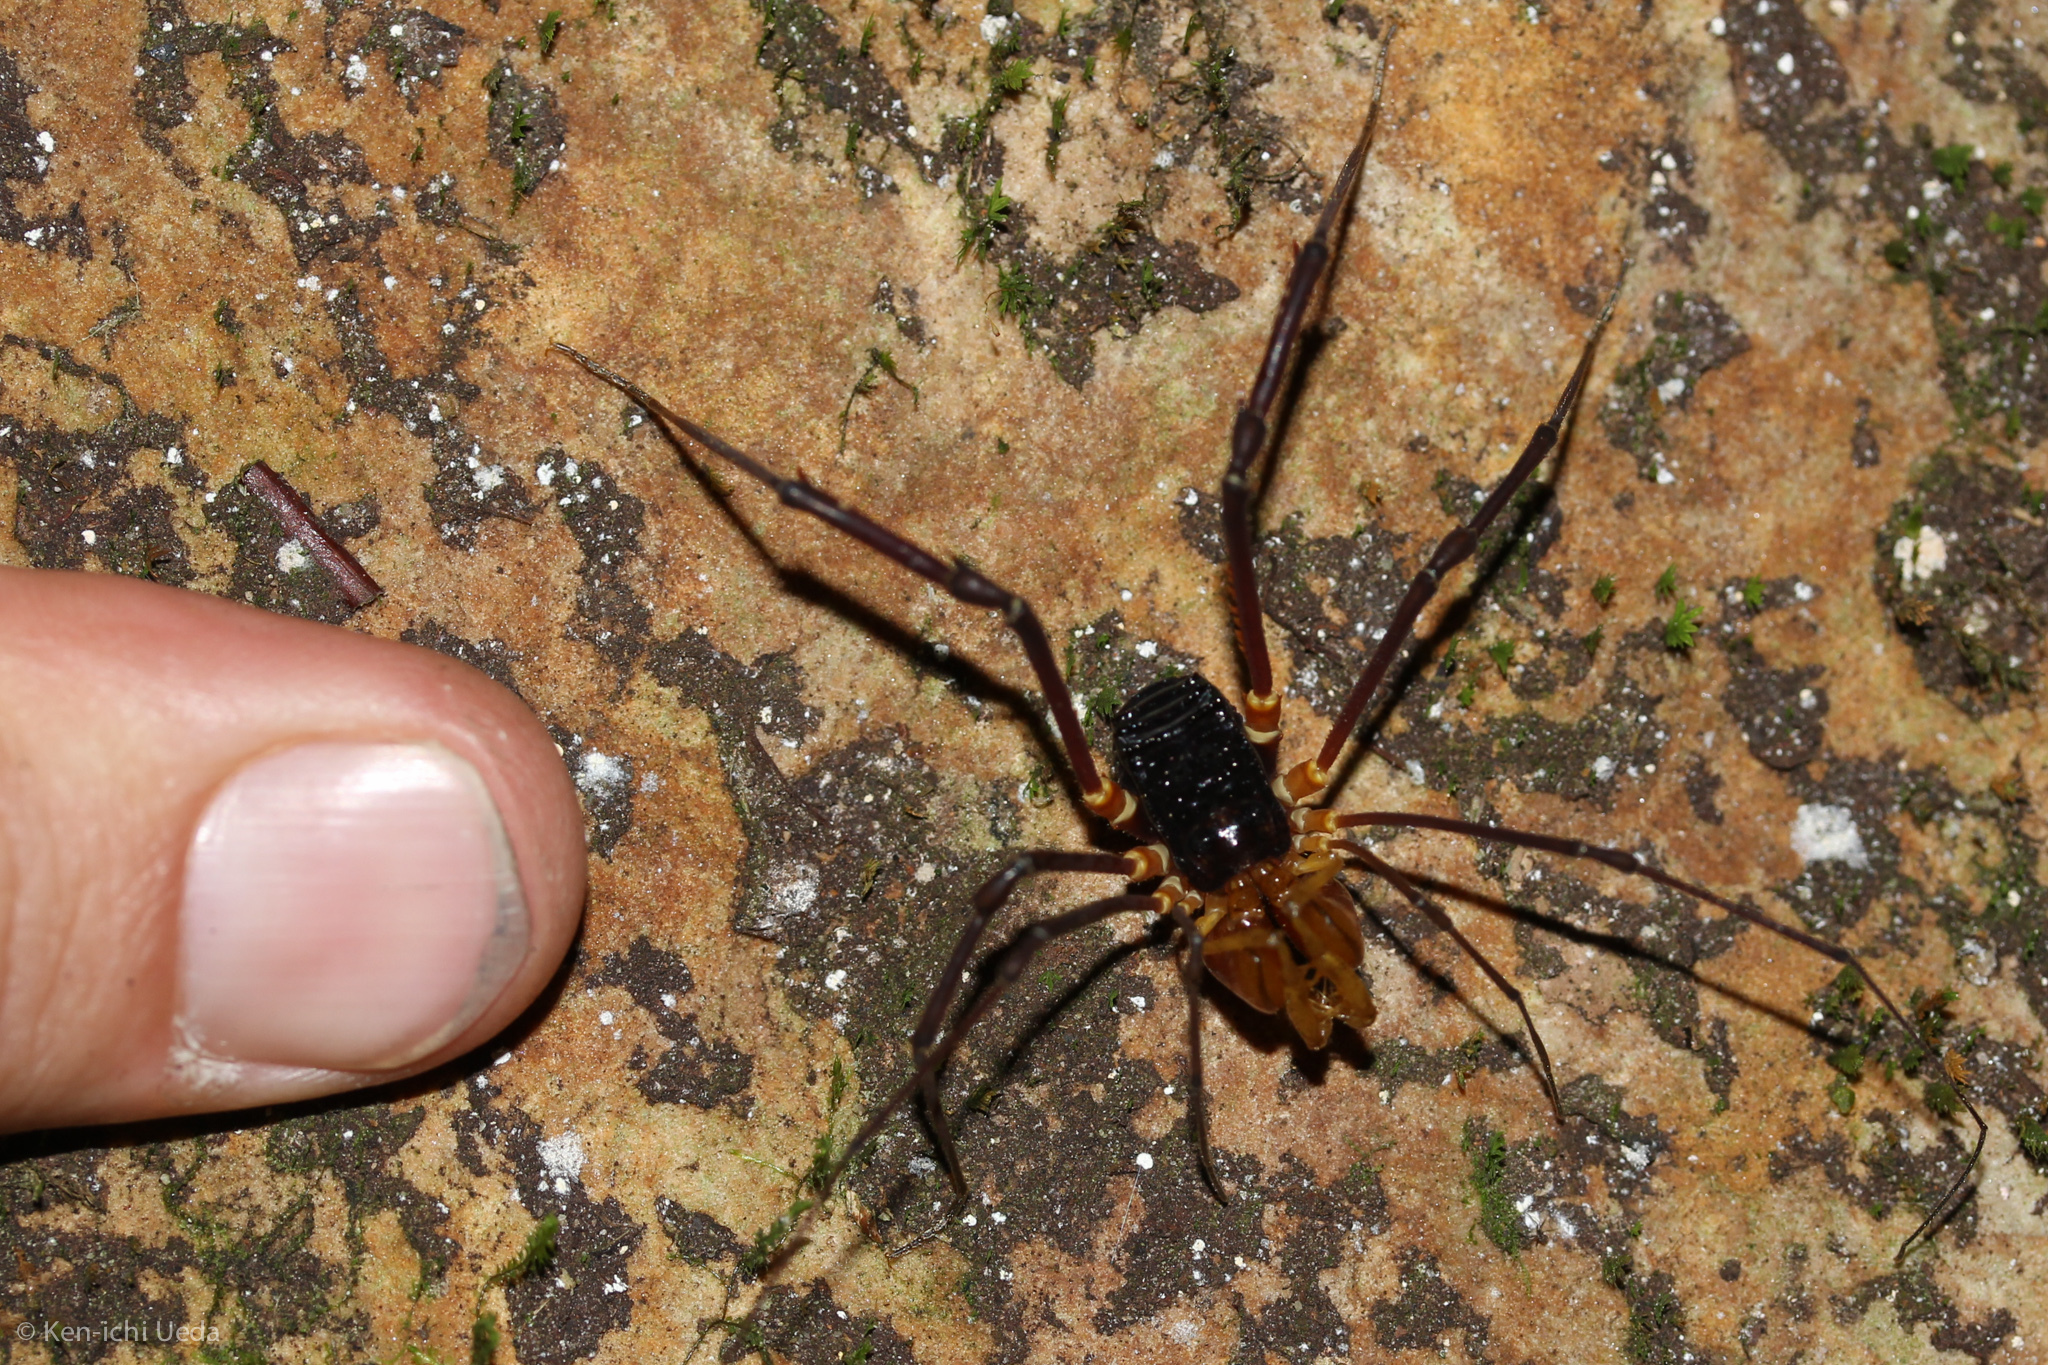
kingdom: Animalia
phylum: Arthropoda
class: Arachnida
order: Opiliones
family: Stygnidae
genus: Phareus
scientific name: Phareus raptator
